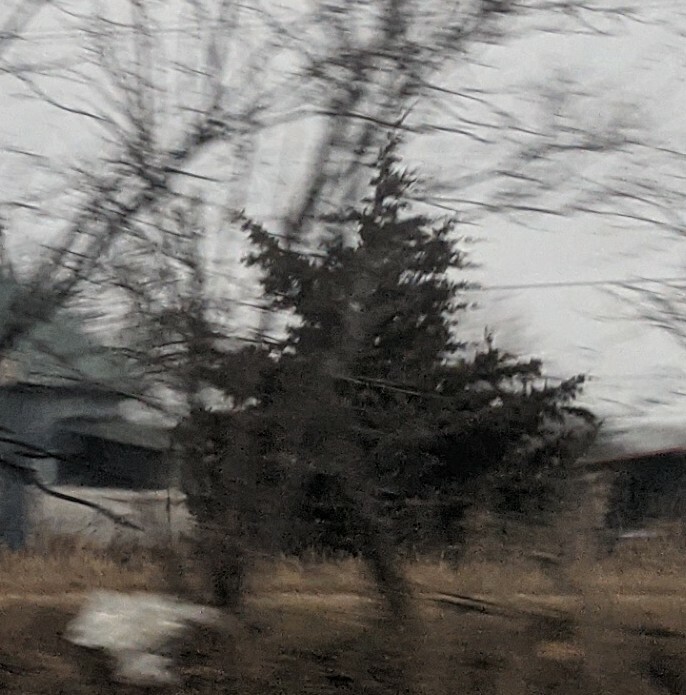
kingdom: Plantae
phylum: Tracheophyta
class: Pinopsida
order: Pinales
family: Cupressaceae
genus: Juniperus
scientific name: Juniperus virginiana
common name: Red juniper
